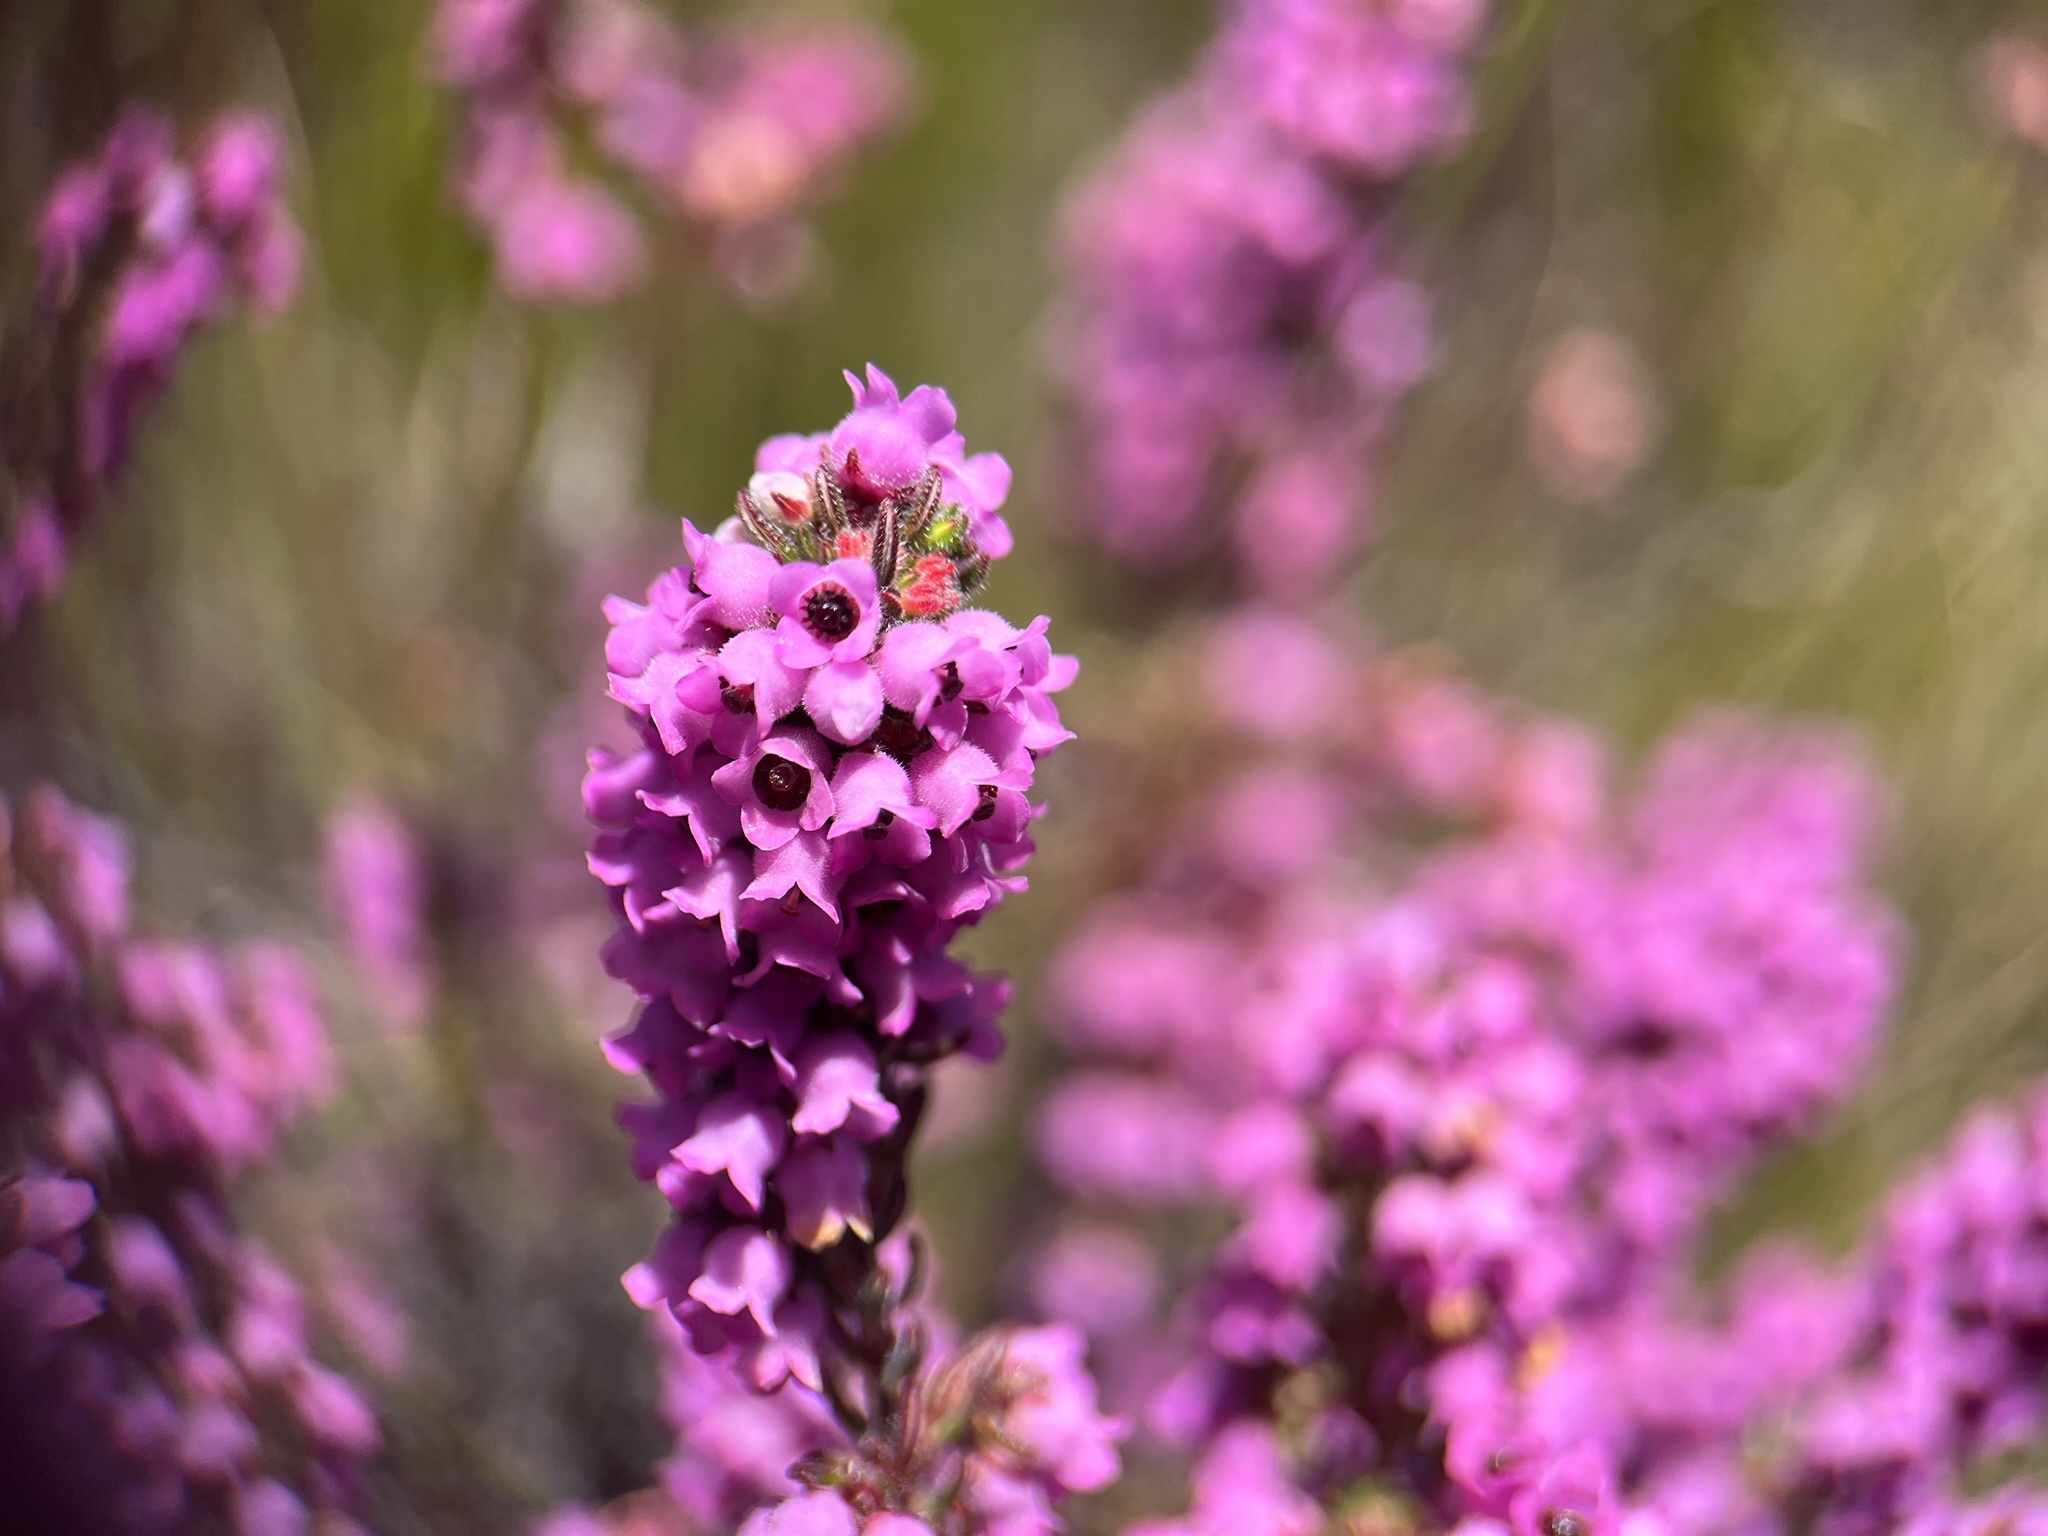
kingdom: Plantae
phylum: Tracheophyta
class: Magnoliopsida
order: Ericales
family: Ericaceae
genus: Erica
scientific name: Erica mollis
